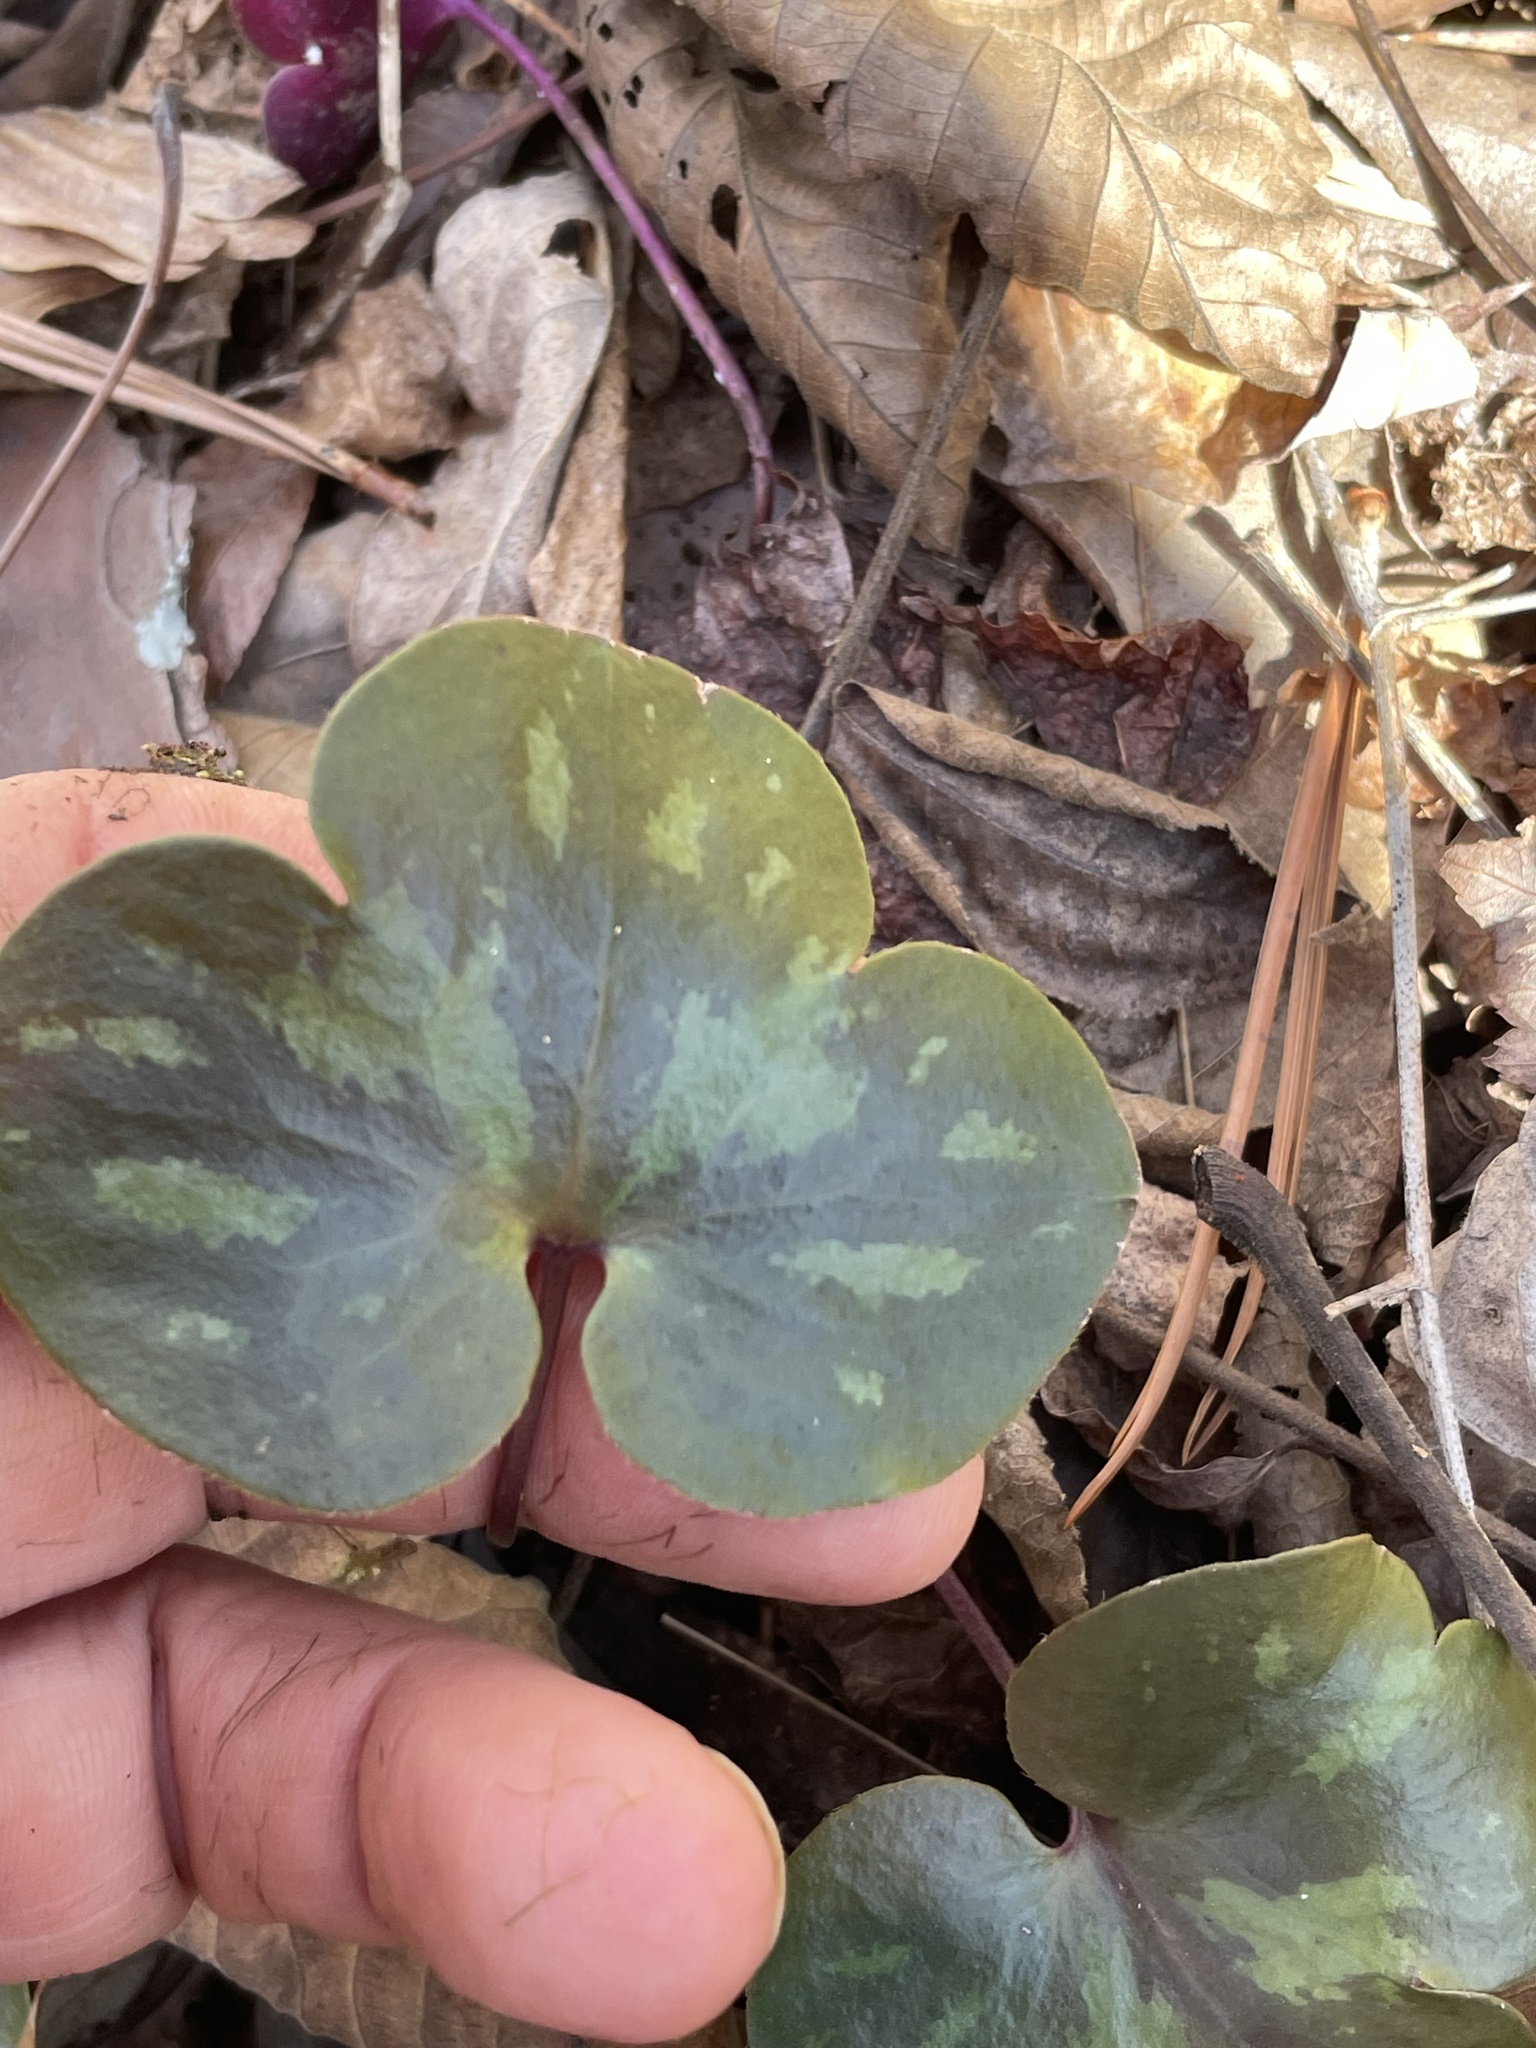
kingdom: Plantae
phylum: Tracheophyta
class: Magnoliopsida
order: Ranunculales
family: Ranunculaceae
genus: Hepatica
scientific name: Hepatica americana
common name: American hepatica
